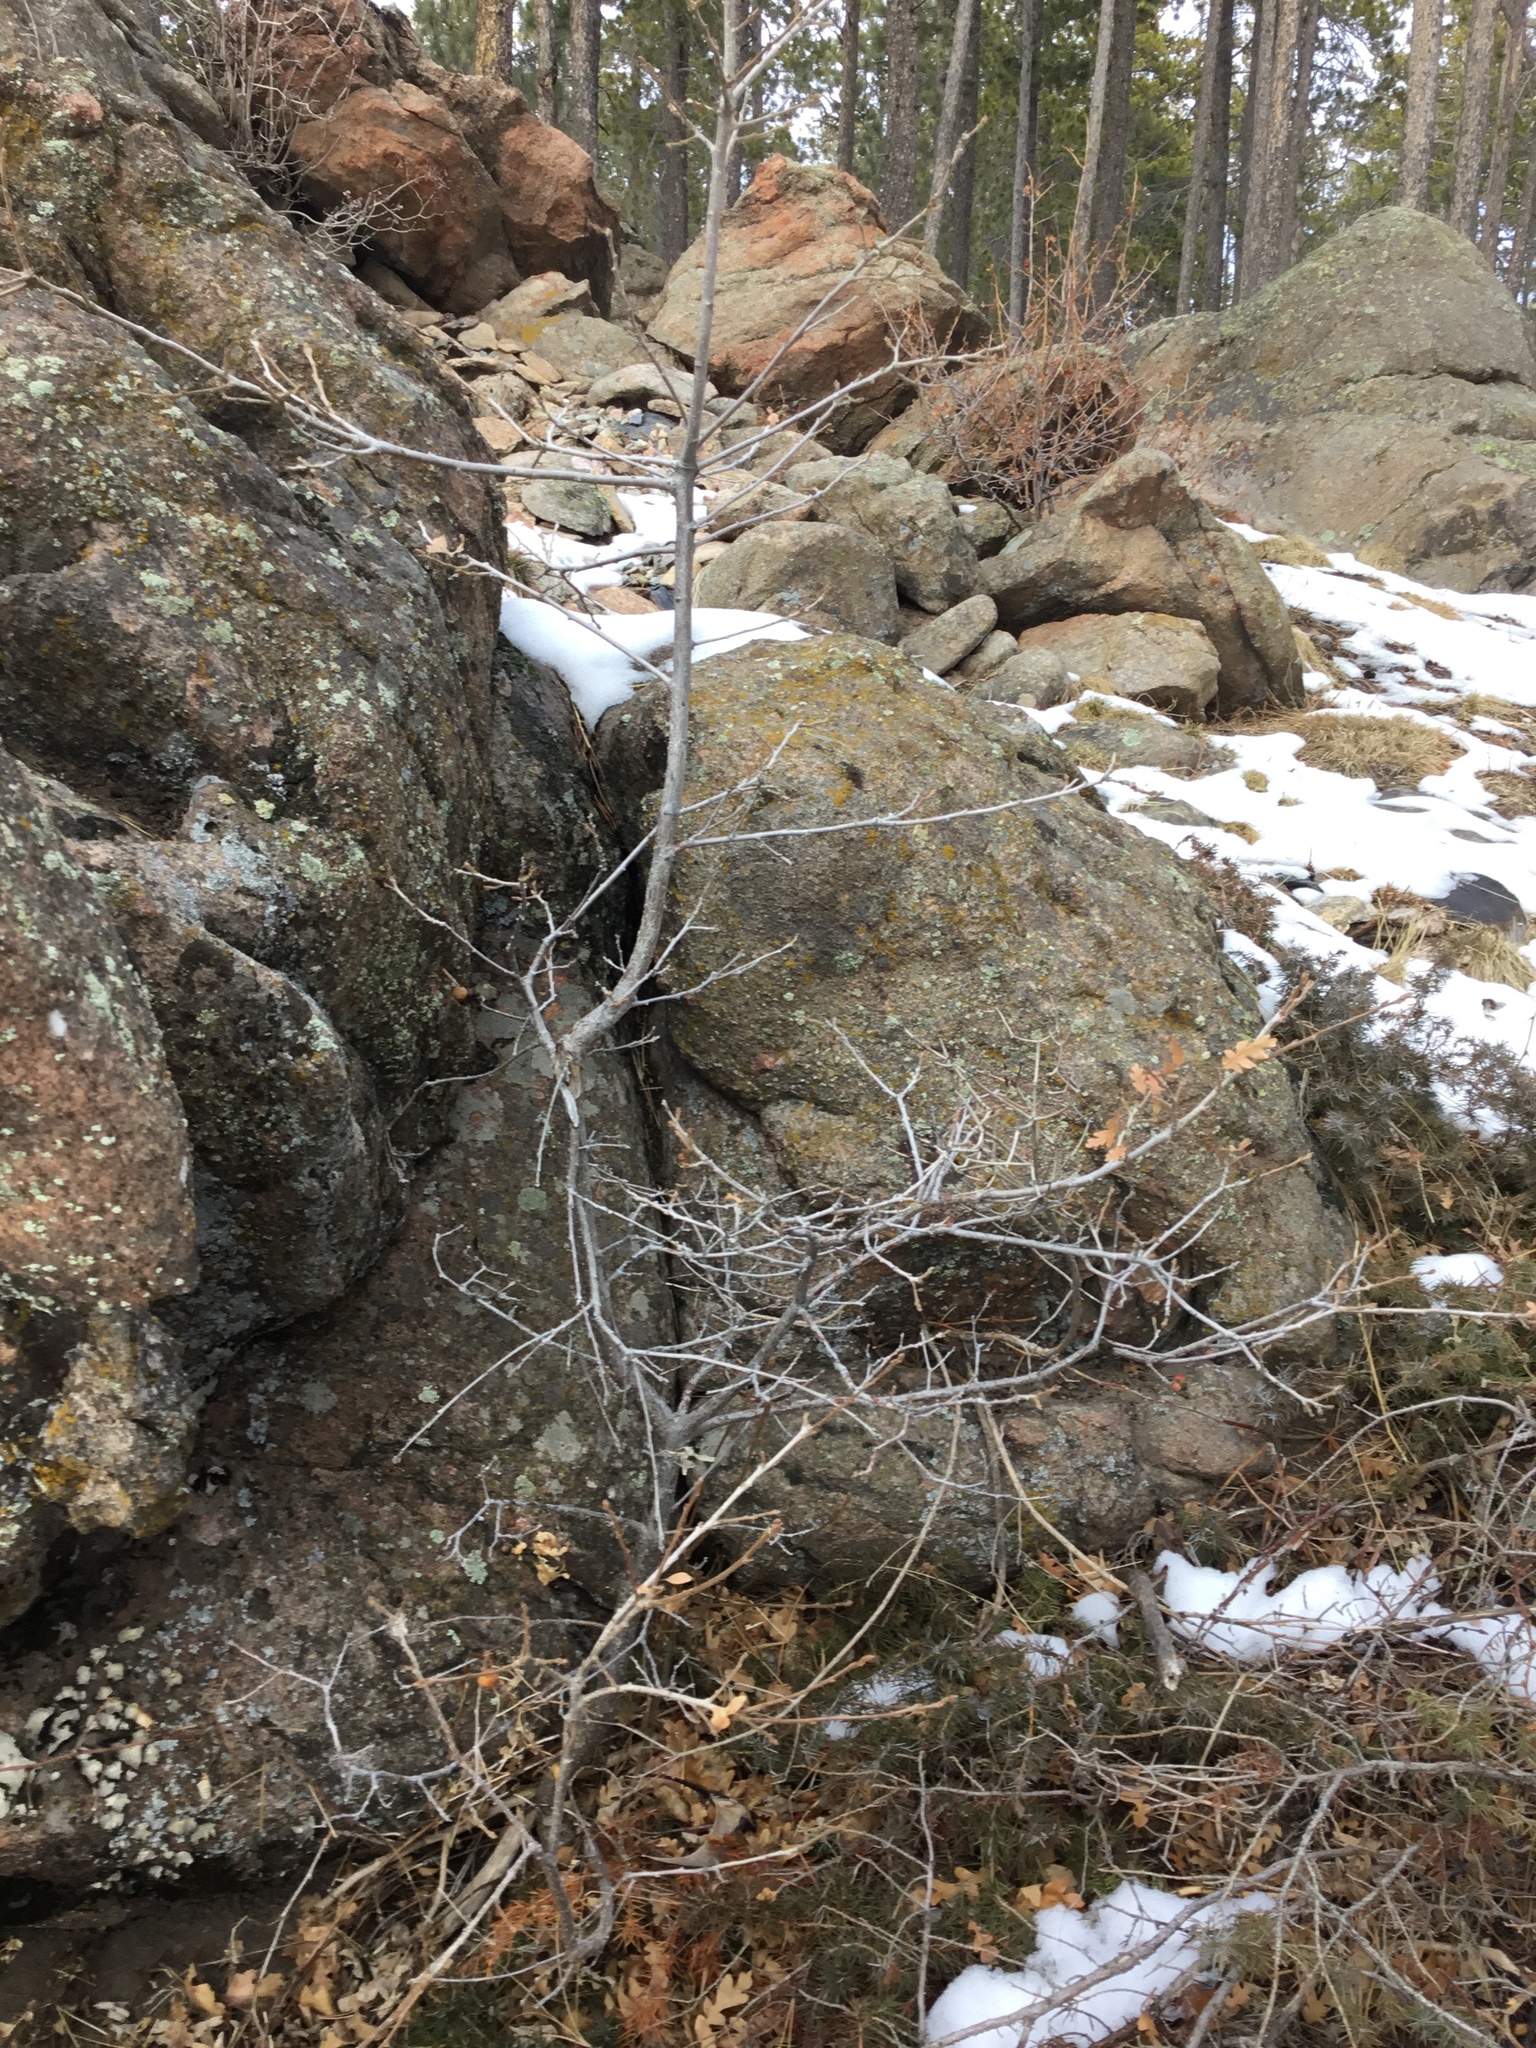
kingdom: Plantae
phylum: Tracheophyta
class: Magnoliopsida
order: Fagales
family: Fagaceae
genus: Quercus
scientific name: Quercus gambelii
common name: Gambel oak
